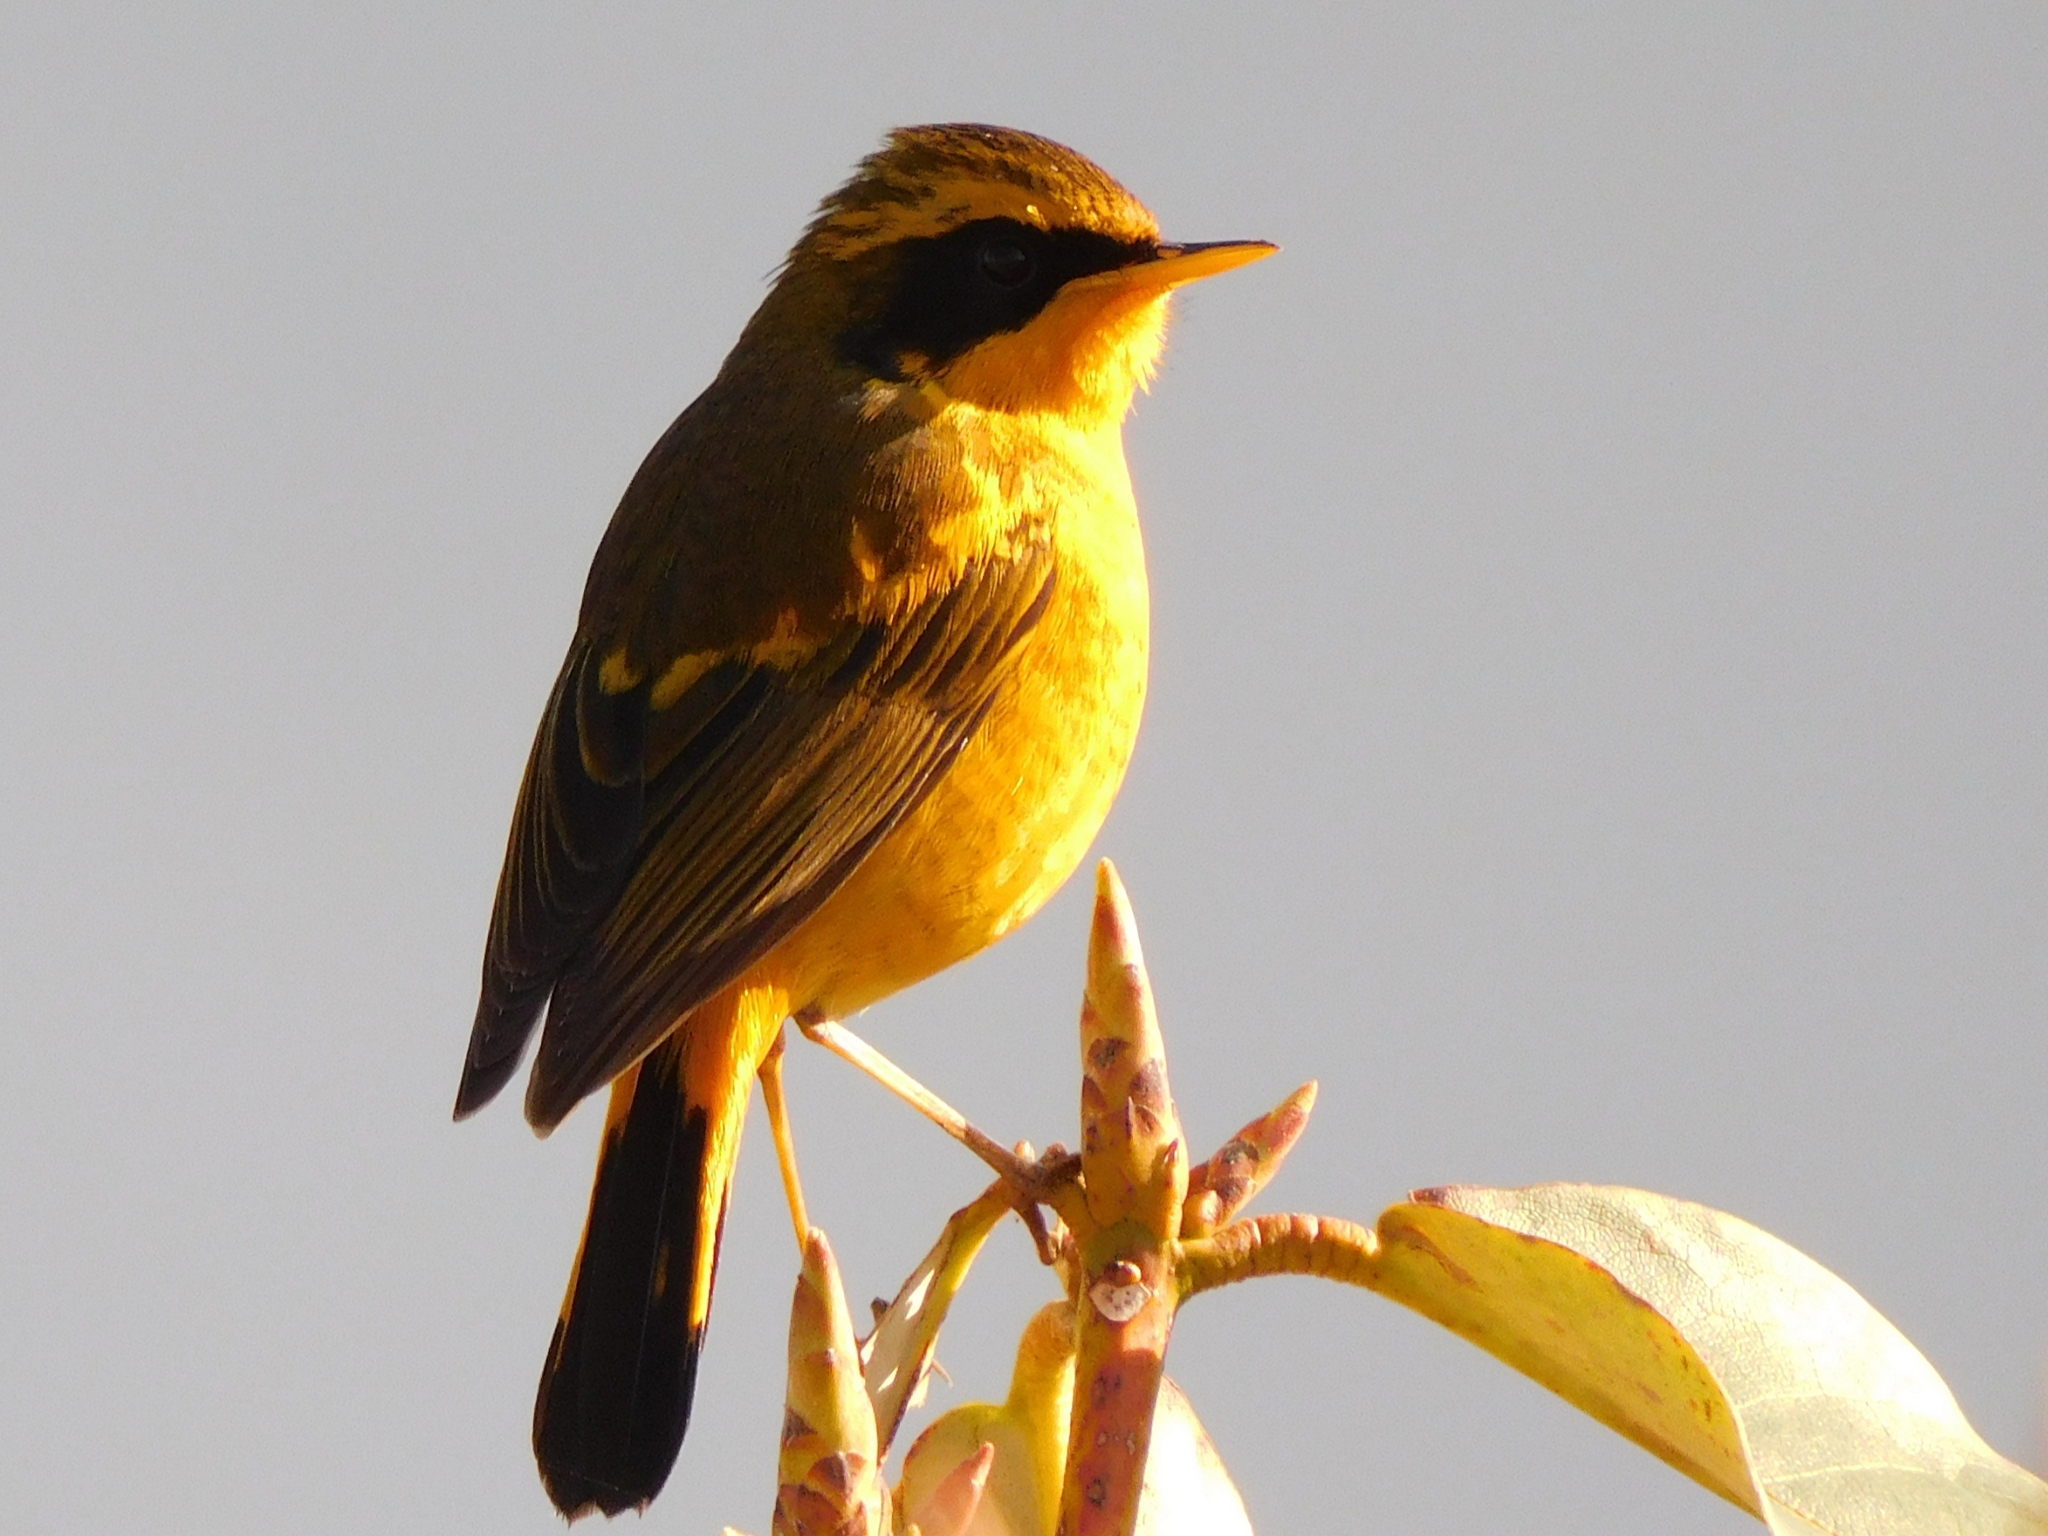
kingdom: Animalia
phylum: Chordata
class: Aves
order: Passeriformes
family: Muscicapidae
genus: Tarsiger
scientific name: Tarsiger chrysaeus
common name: Golden bush robin
